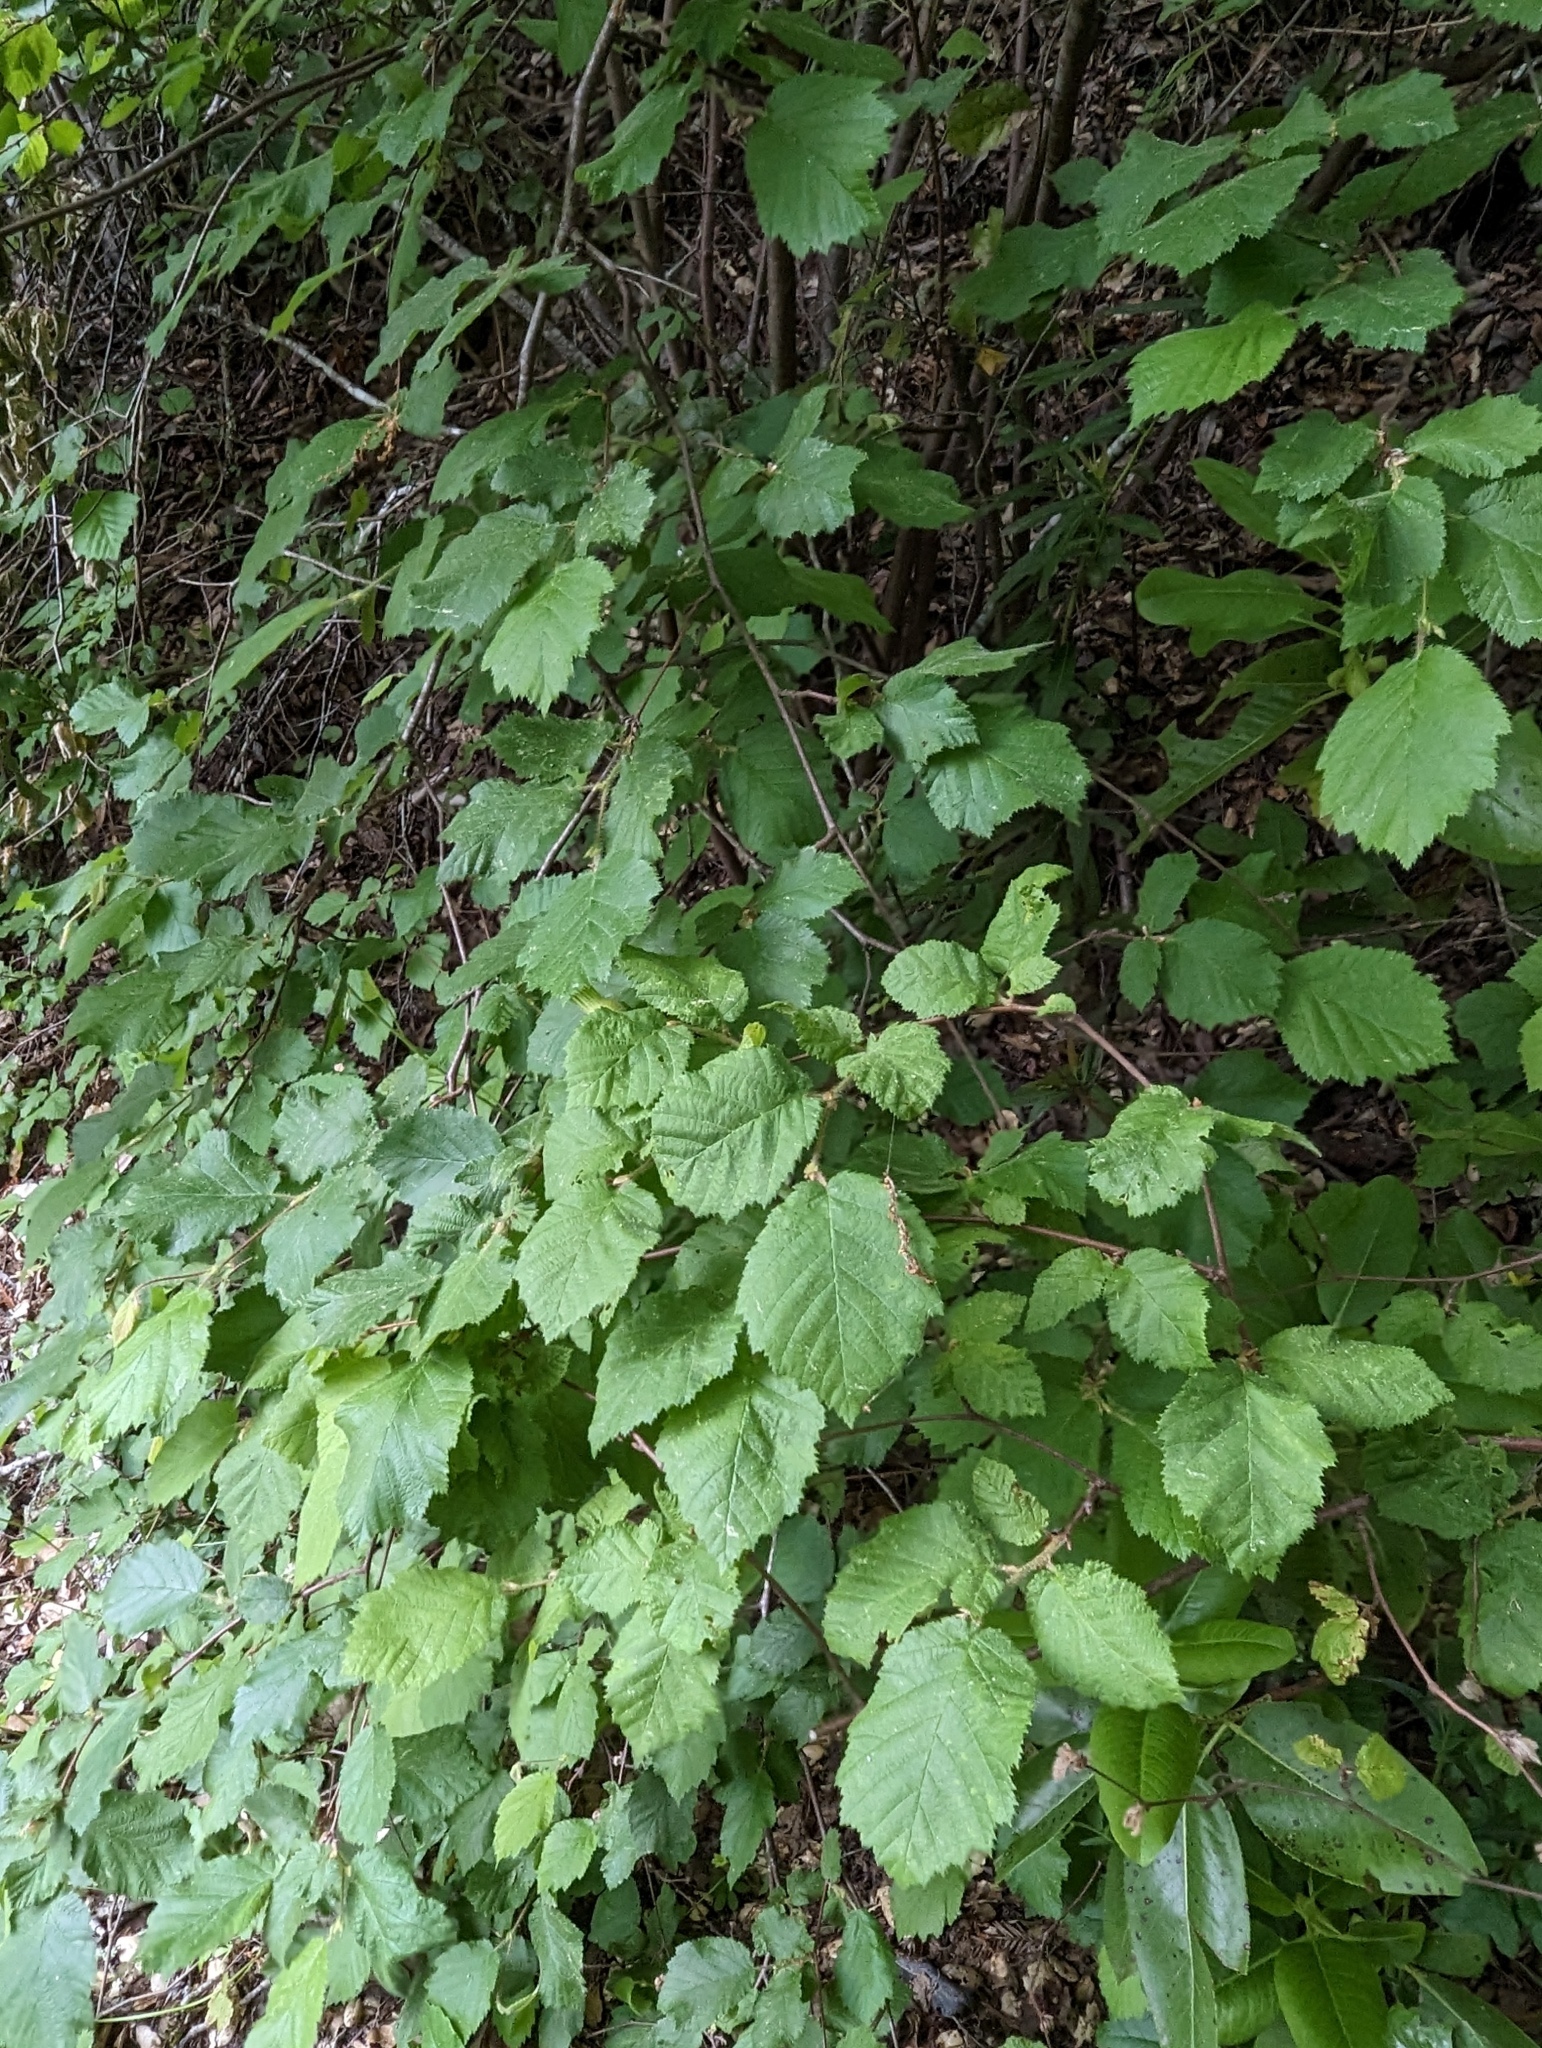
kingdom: Plantae
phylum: Tracheophyta
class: Magnoliopsida
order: Fagales
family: Betulaceae
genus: Corylus
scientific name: Corylus cornuta
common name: Beaked hazel
